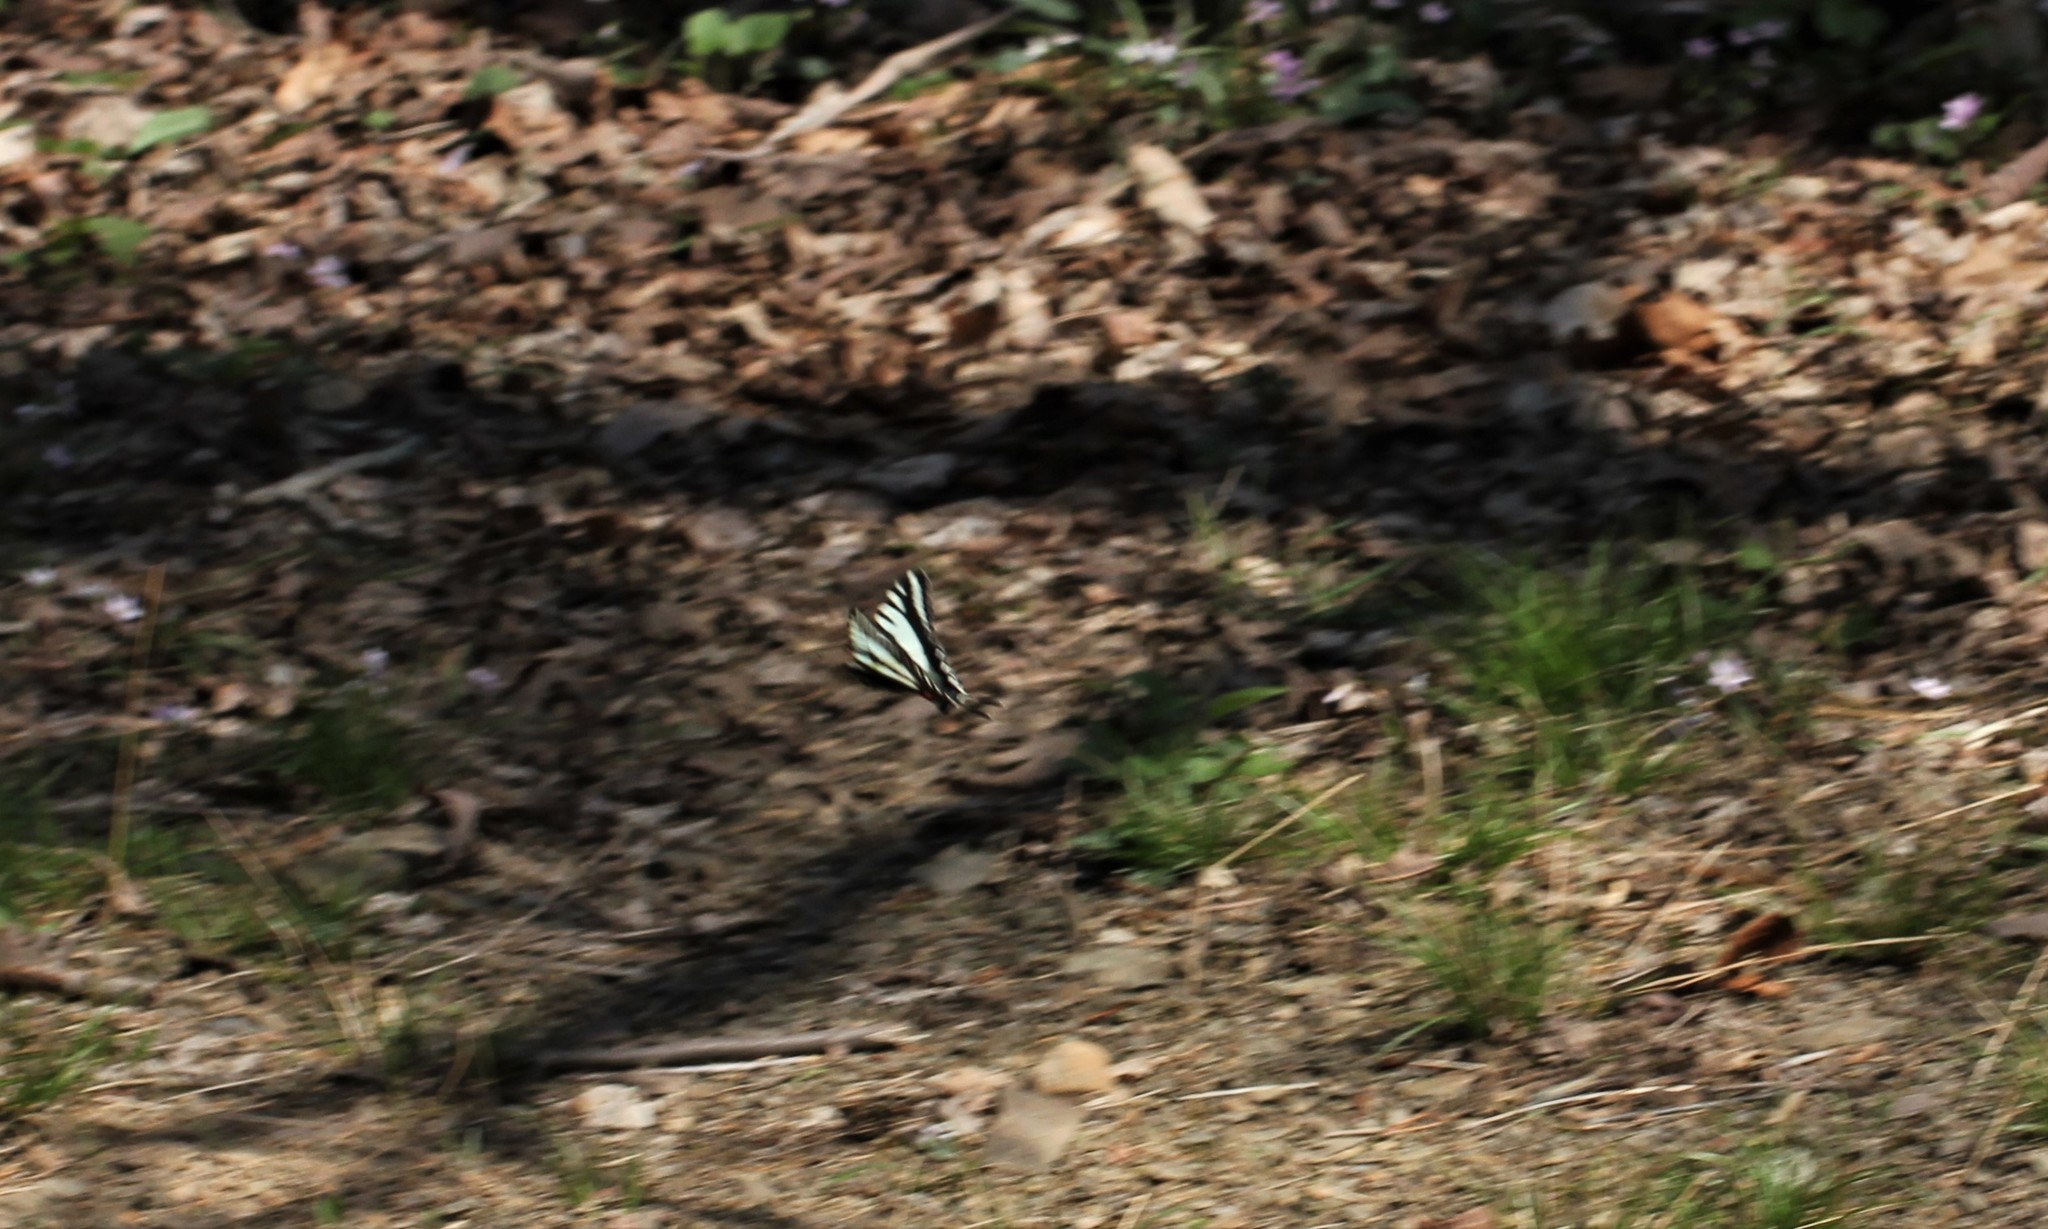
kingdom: Animalia
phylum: Arthropoda
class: Insecta
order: Lepidoptera
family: Papilionidae
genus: Protographium
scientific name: Protographium marcellus
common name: Zebra swallowtail
